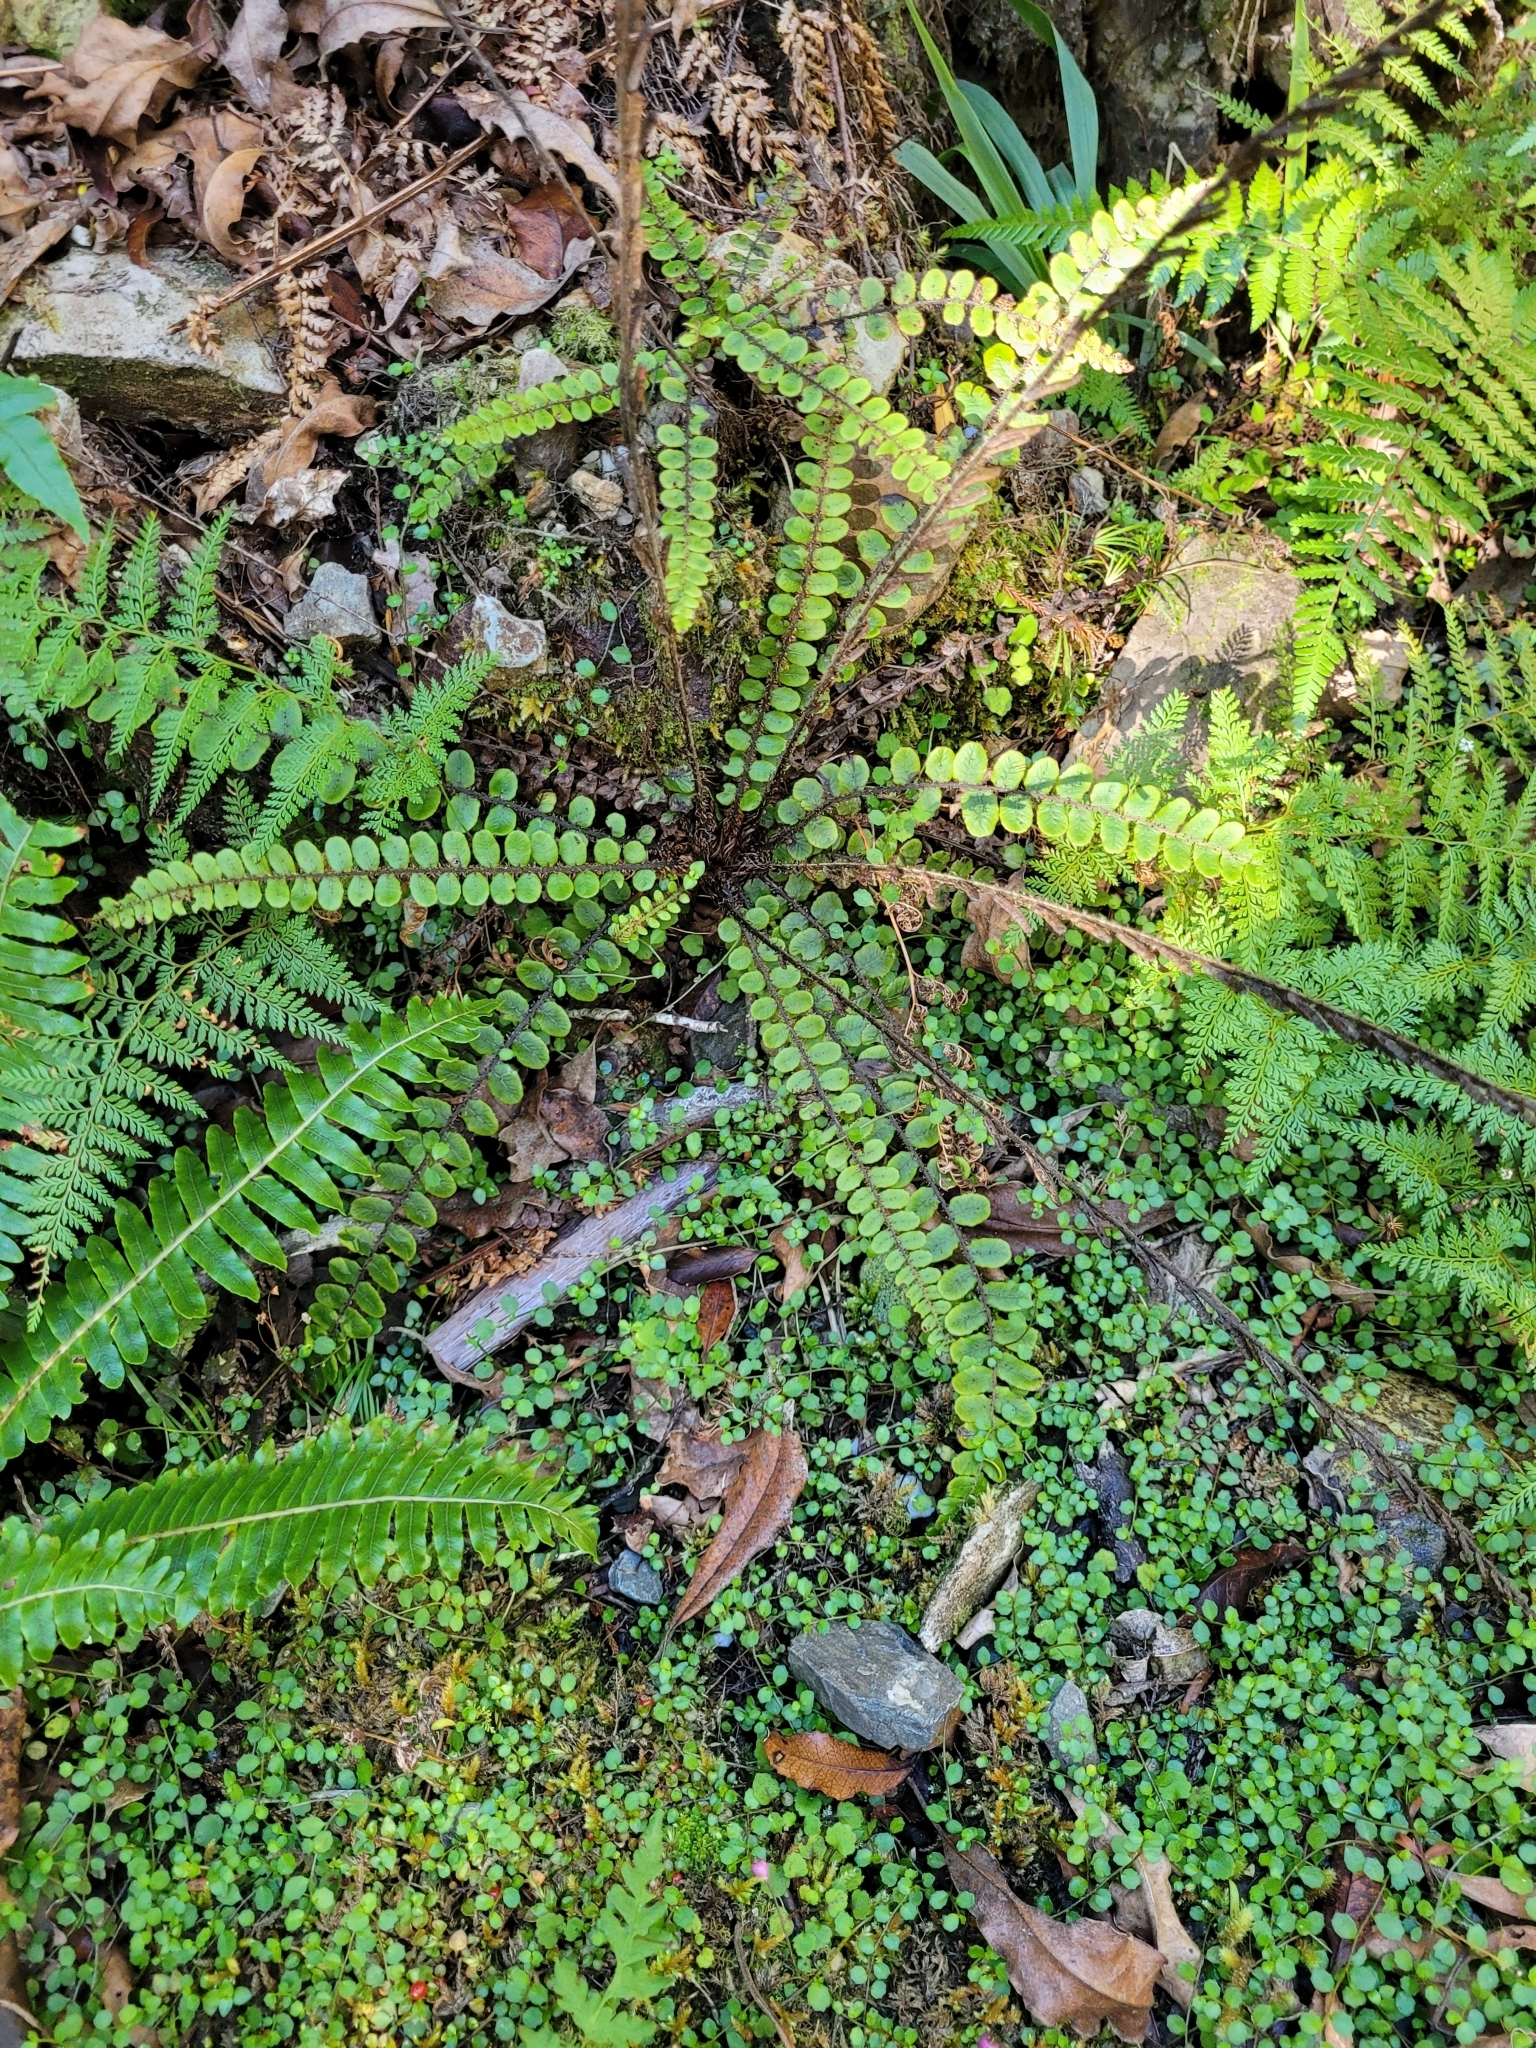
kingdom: Plantae
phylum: Tracheophyta
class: Polypodiopsida
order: Polypodiales
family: Blechnaceae
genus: Cranfillia
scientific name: Cranfillia fluviatilis
